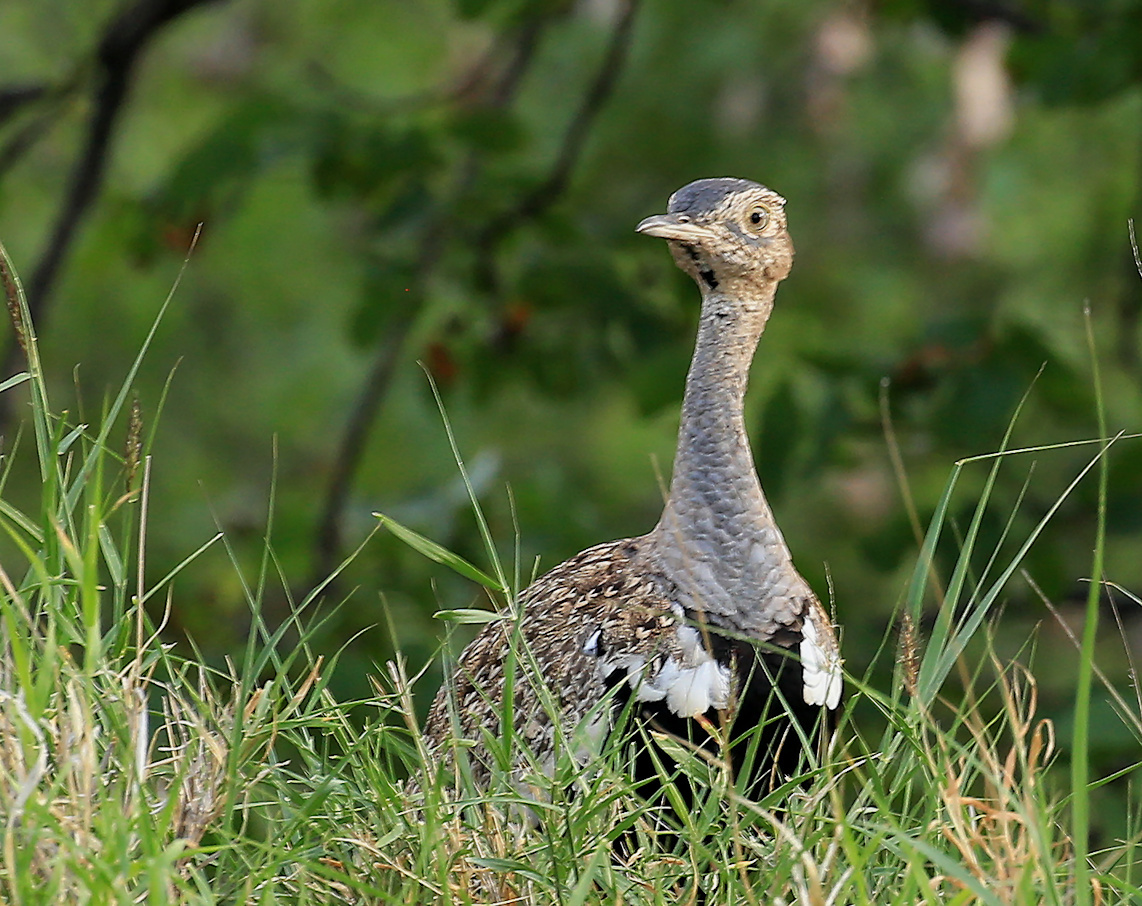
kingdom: Animalia
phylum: Chordata
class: Aves
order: Otidiformes
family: Otididae
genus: Lophotis
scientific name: Lophotis ruficrista
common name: Red-crested korhaan
